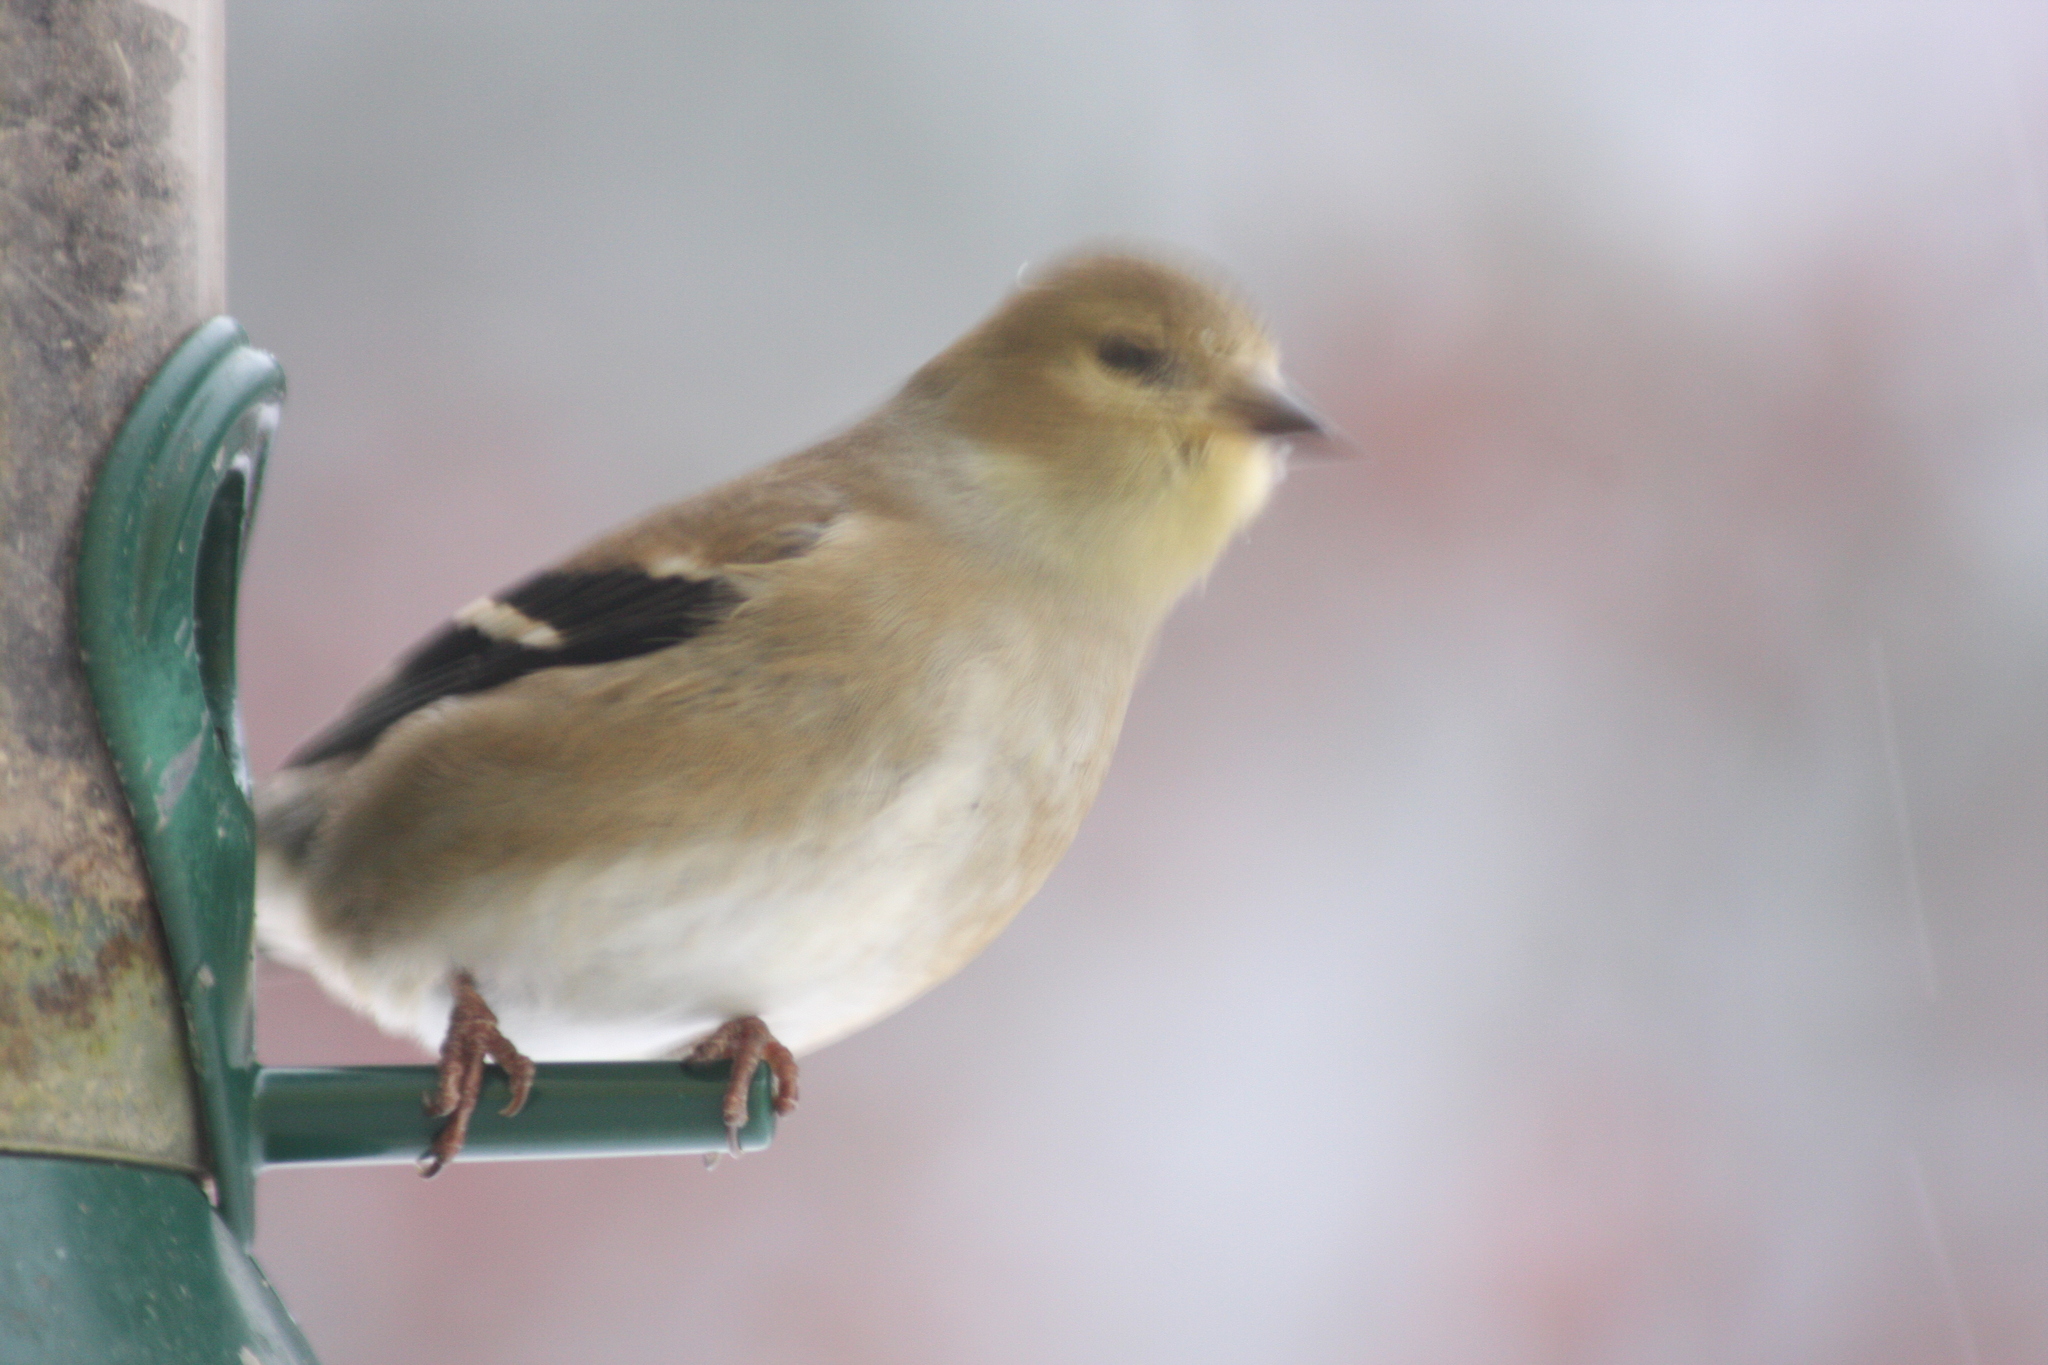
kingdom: Animalia
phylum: Chordata
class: Aves
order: Passeriformes
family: Fringillidae
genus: Spinus
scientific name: Spinus tristis
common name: American goldfinch
